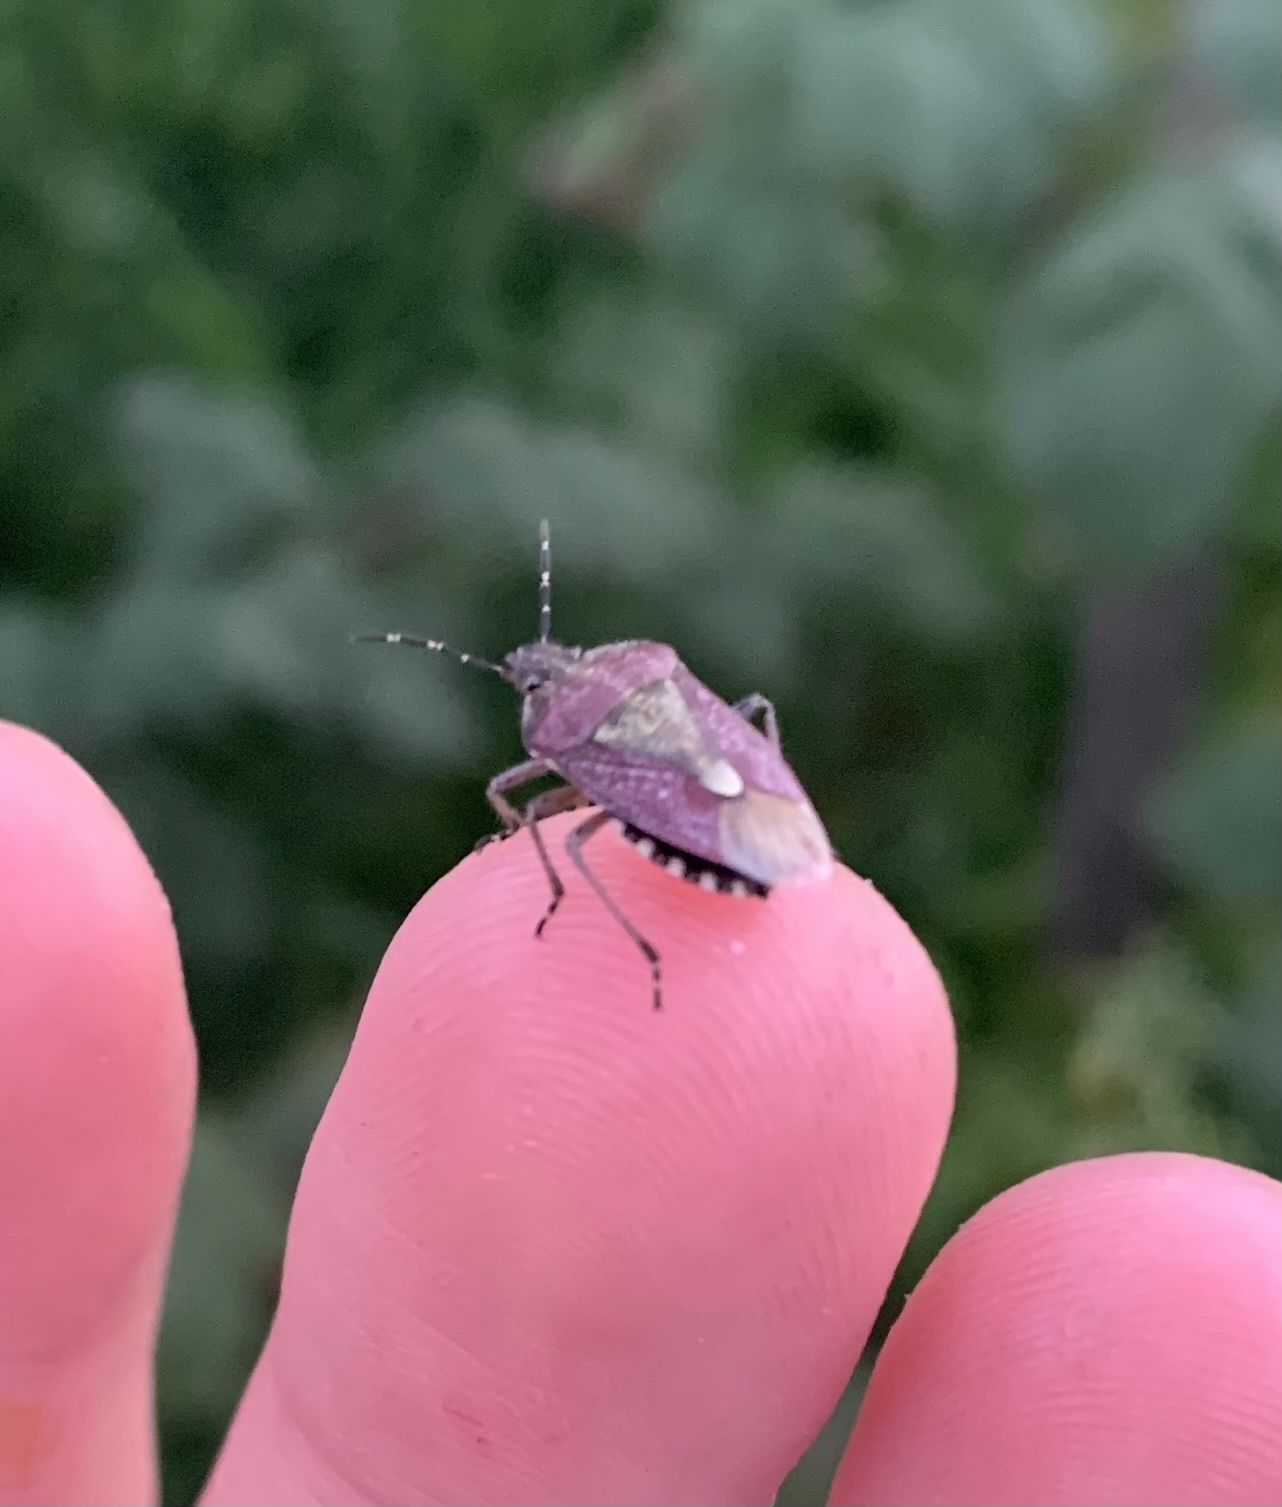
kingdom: Animalia
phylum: Arthropoda
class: Insecta
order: Hemiptera
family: Pentatomidae
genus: Dolycoris
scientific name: Dolycoris baccarum
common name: Sloe bug
